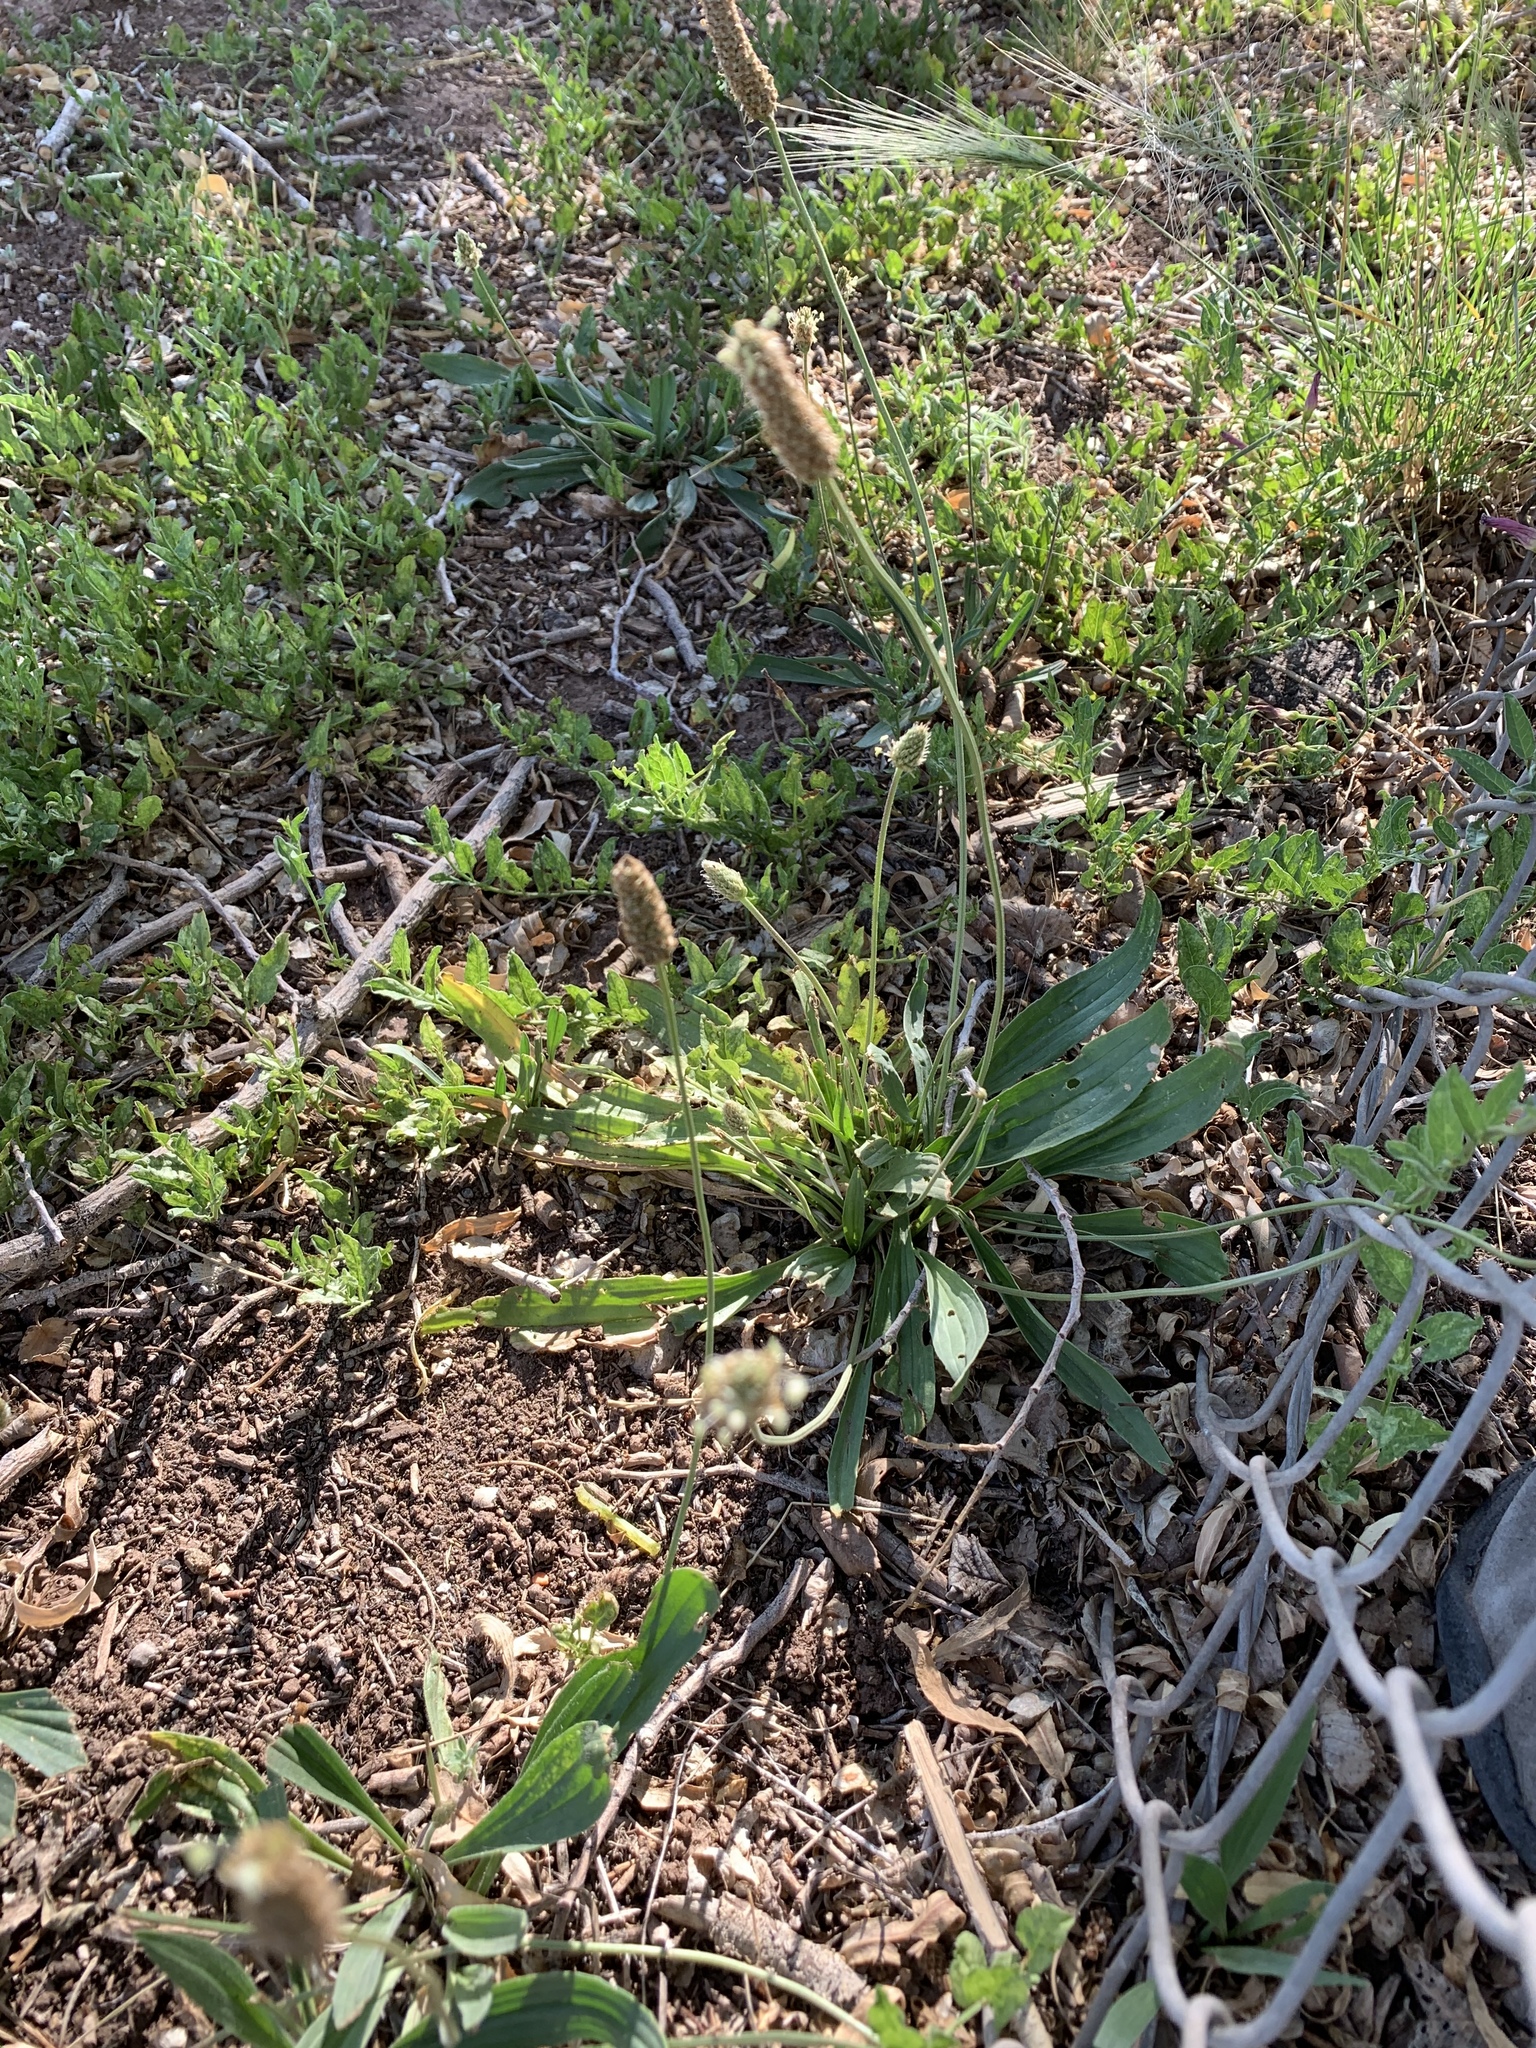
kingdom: Plantae
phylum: Tracheophyta
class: Magnoliopsida
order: Lamiales
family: Plantaginaceae
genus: Plantago
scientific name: Plantago lanceolata
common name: Ribwort plantain
